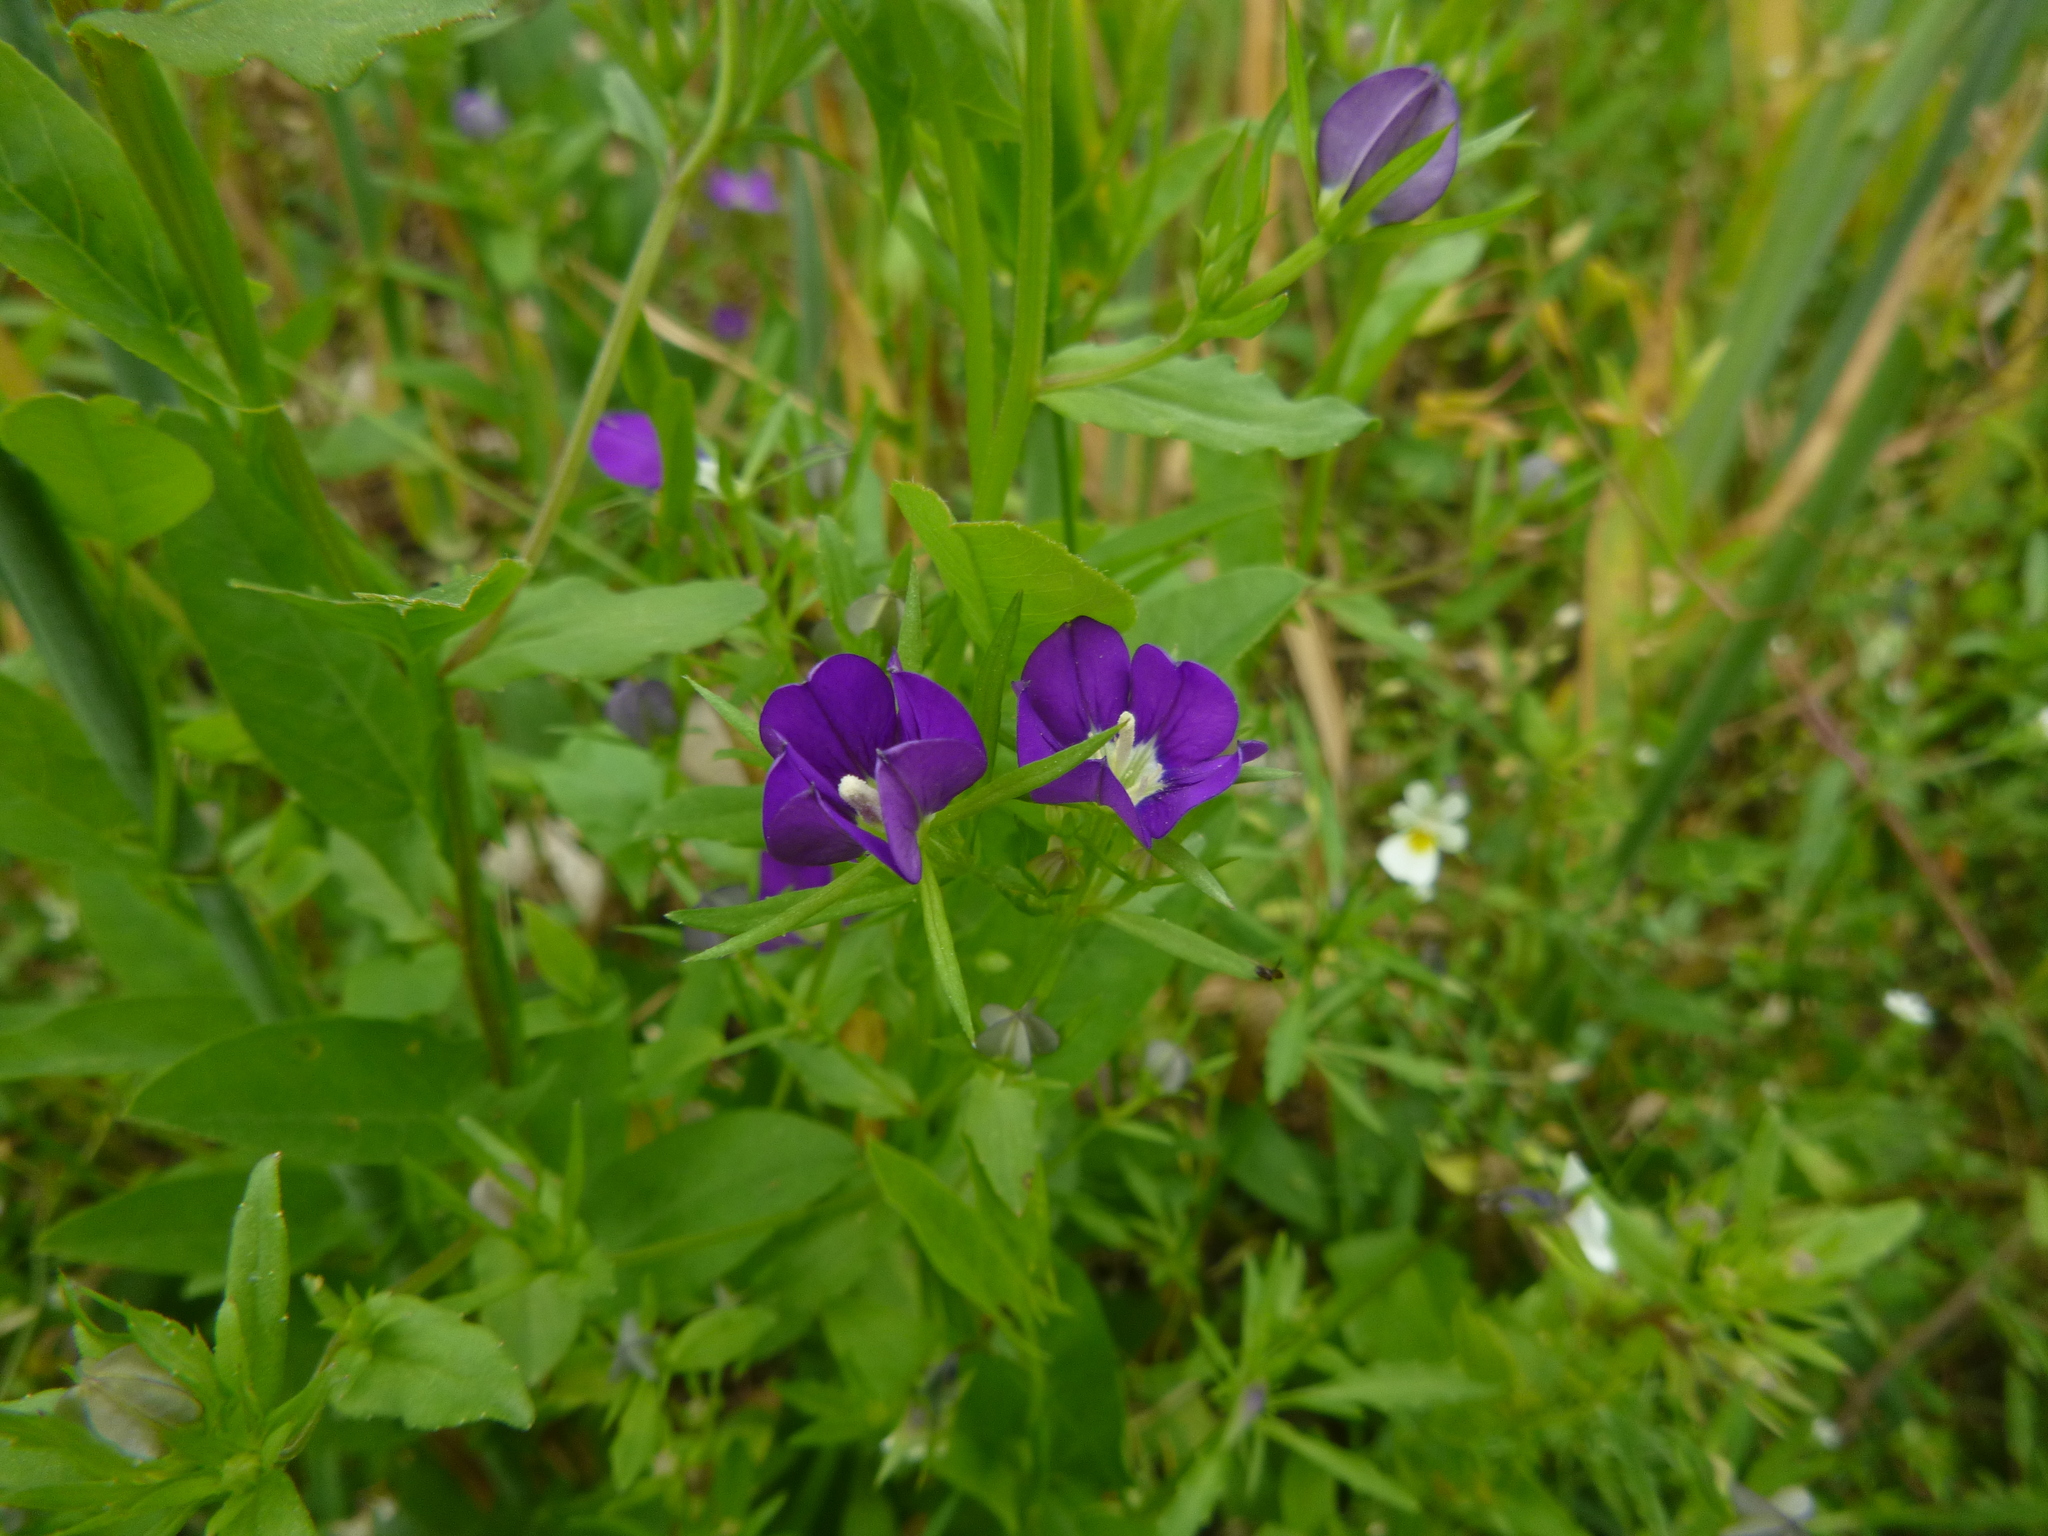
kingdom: Plantae
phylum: Tracheophyta
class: Magnoliopsida
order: Asterales
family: Campanulaceae
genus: Legousia
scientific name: Legousia speculum-veneris
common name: Large venus's-looking-glass
